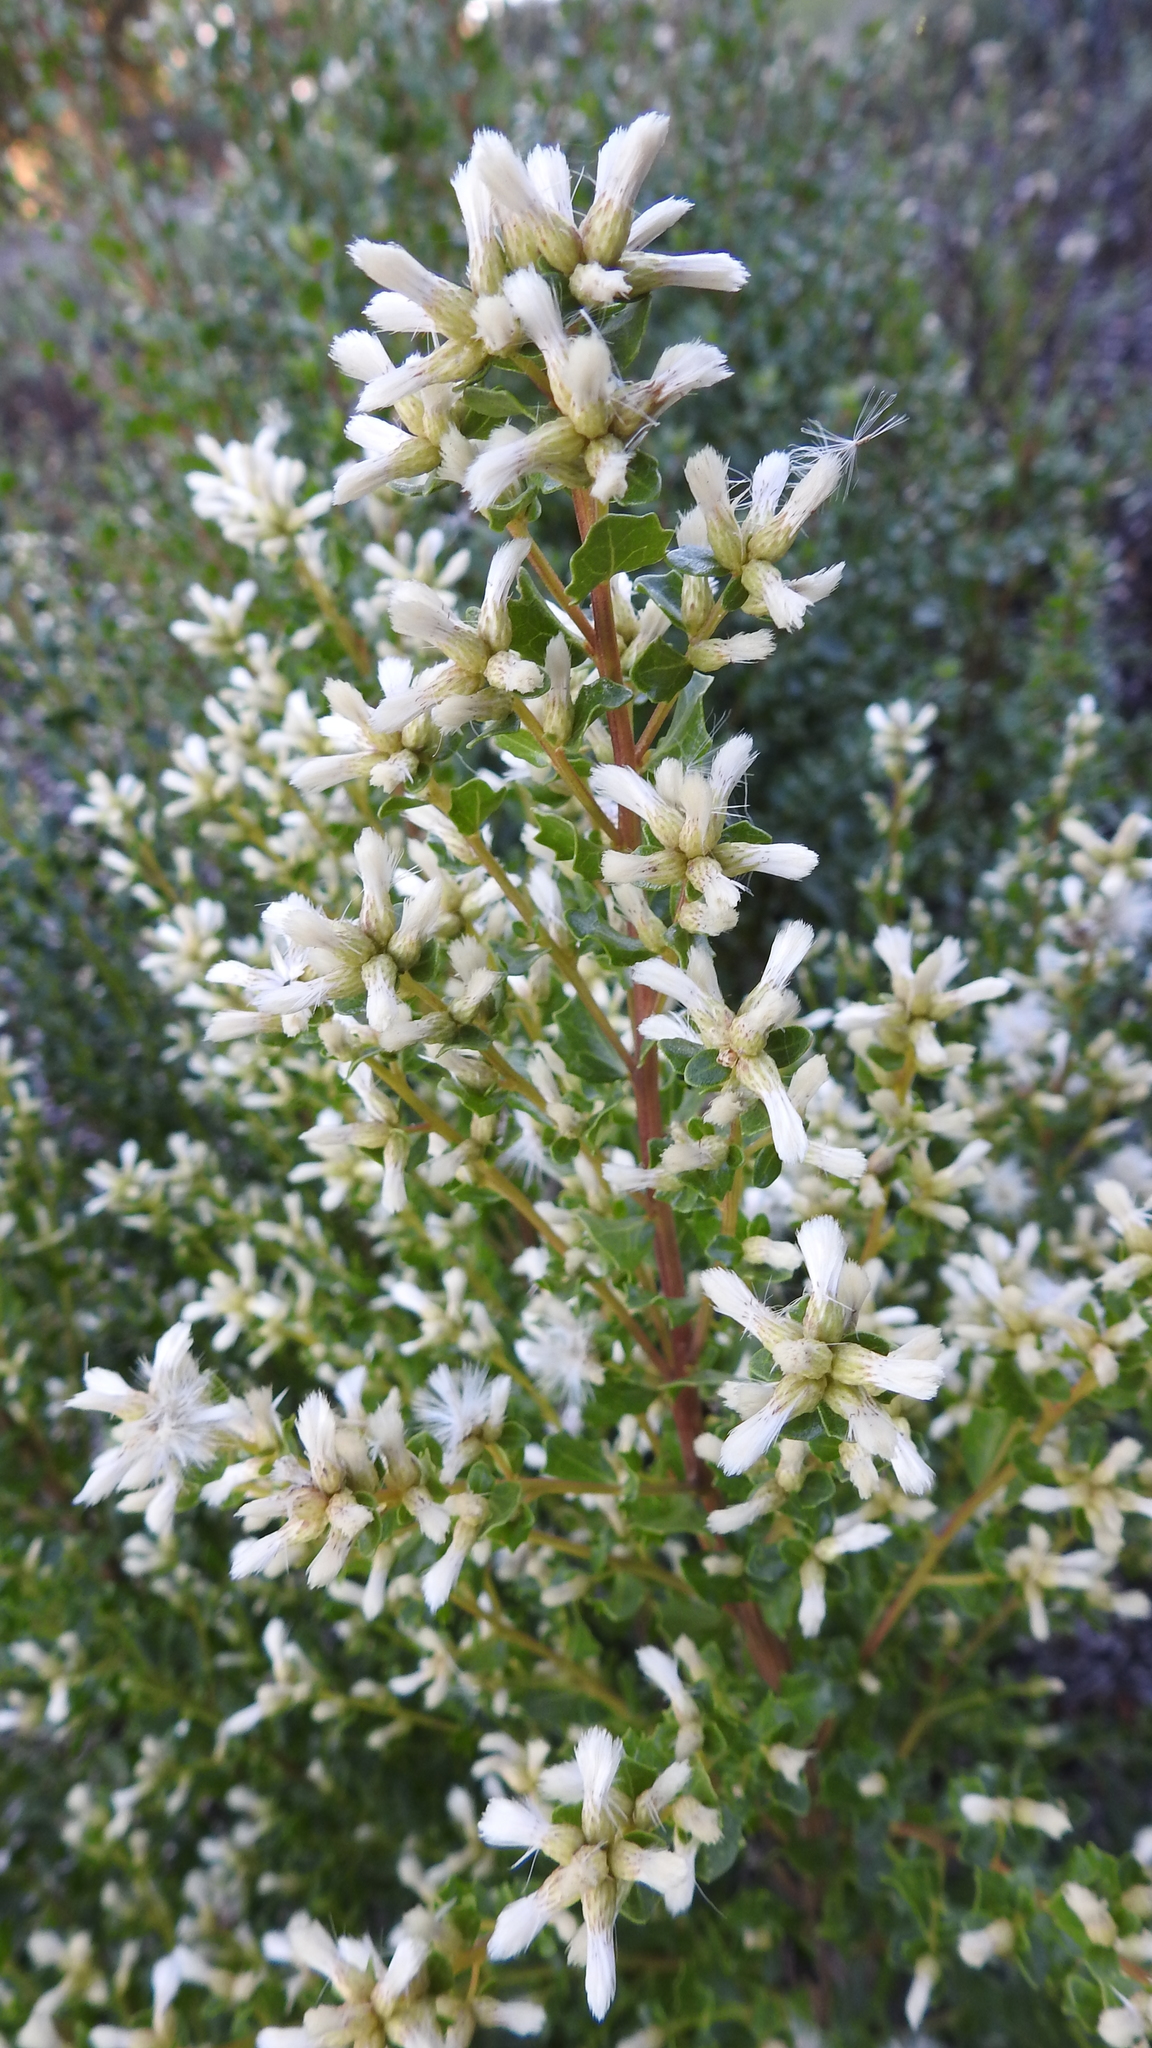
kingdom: Plantae
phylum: Tracheophyta
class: Magnoliopsida
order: Asterales
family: Asteraceae
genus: Baccharis
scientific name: Baccharis pilularis
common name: Coyotebrush
